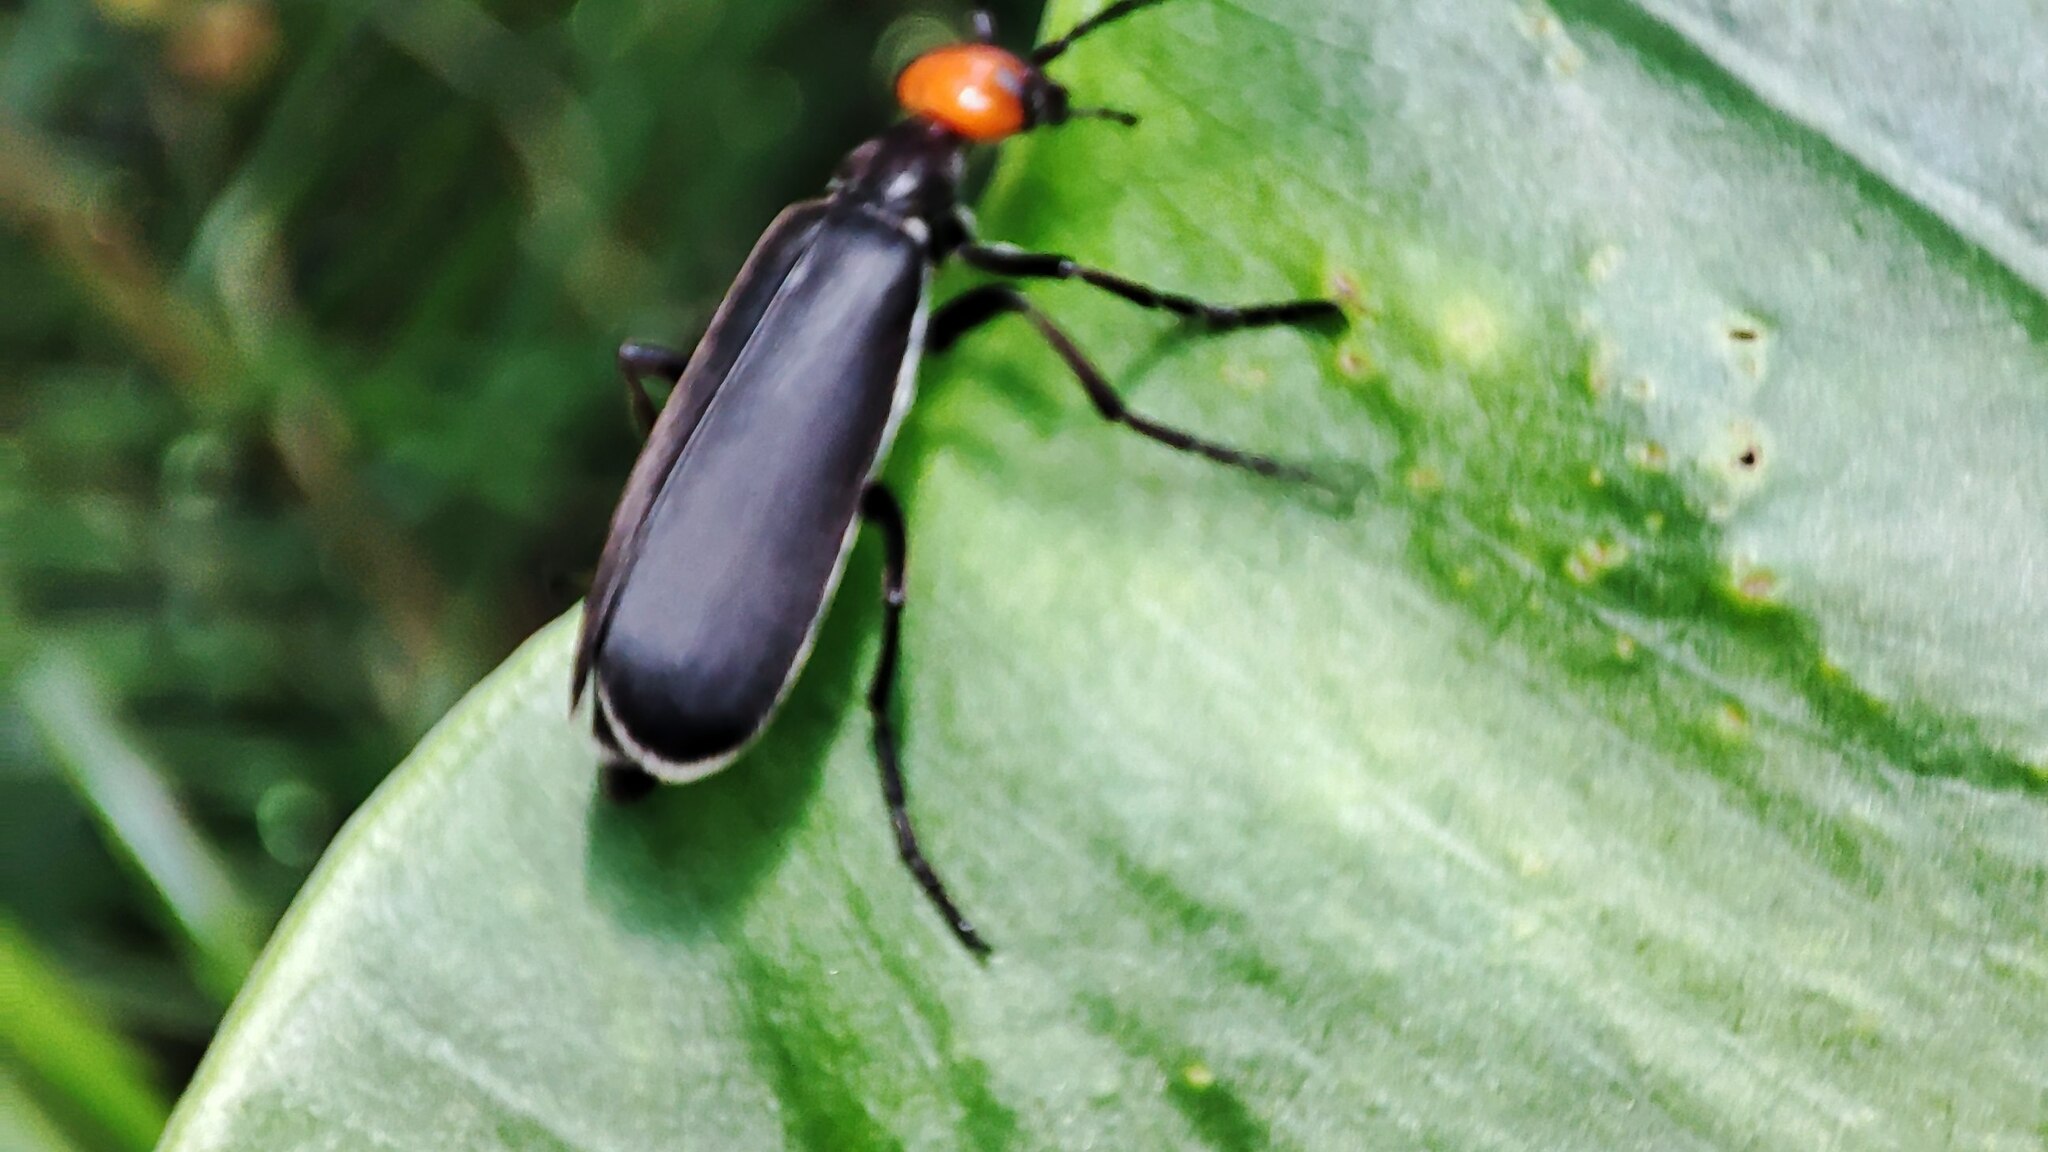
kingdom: Animalia
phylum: Arthropoda
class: Insecta
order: Coleoptera
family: Meloidae
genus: Epicauta
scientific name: Epicauta hirticornis
